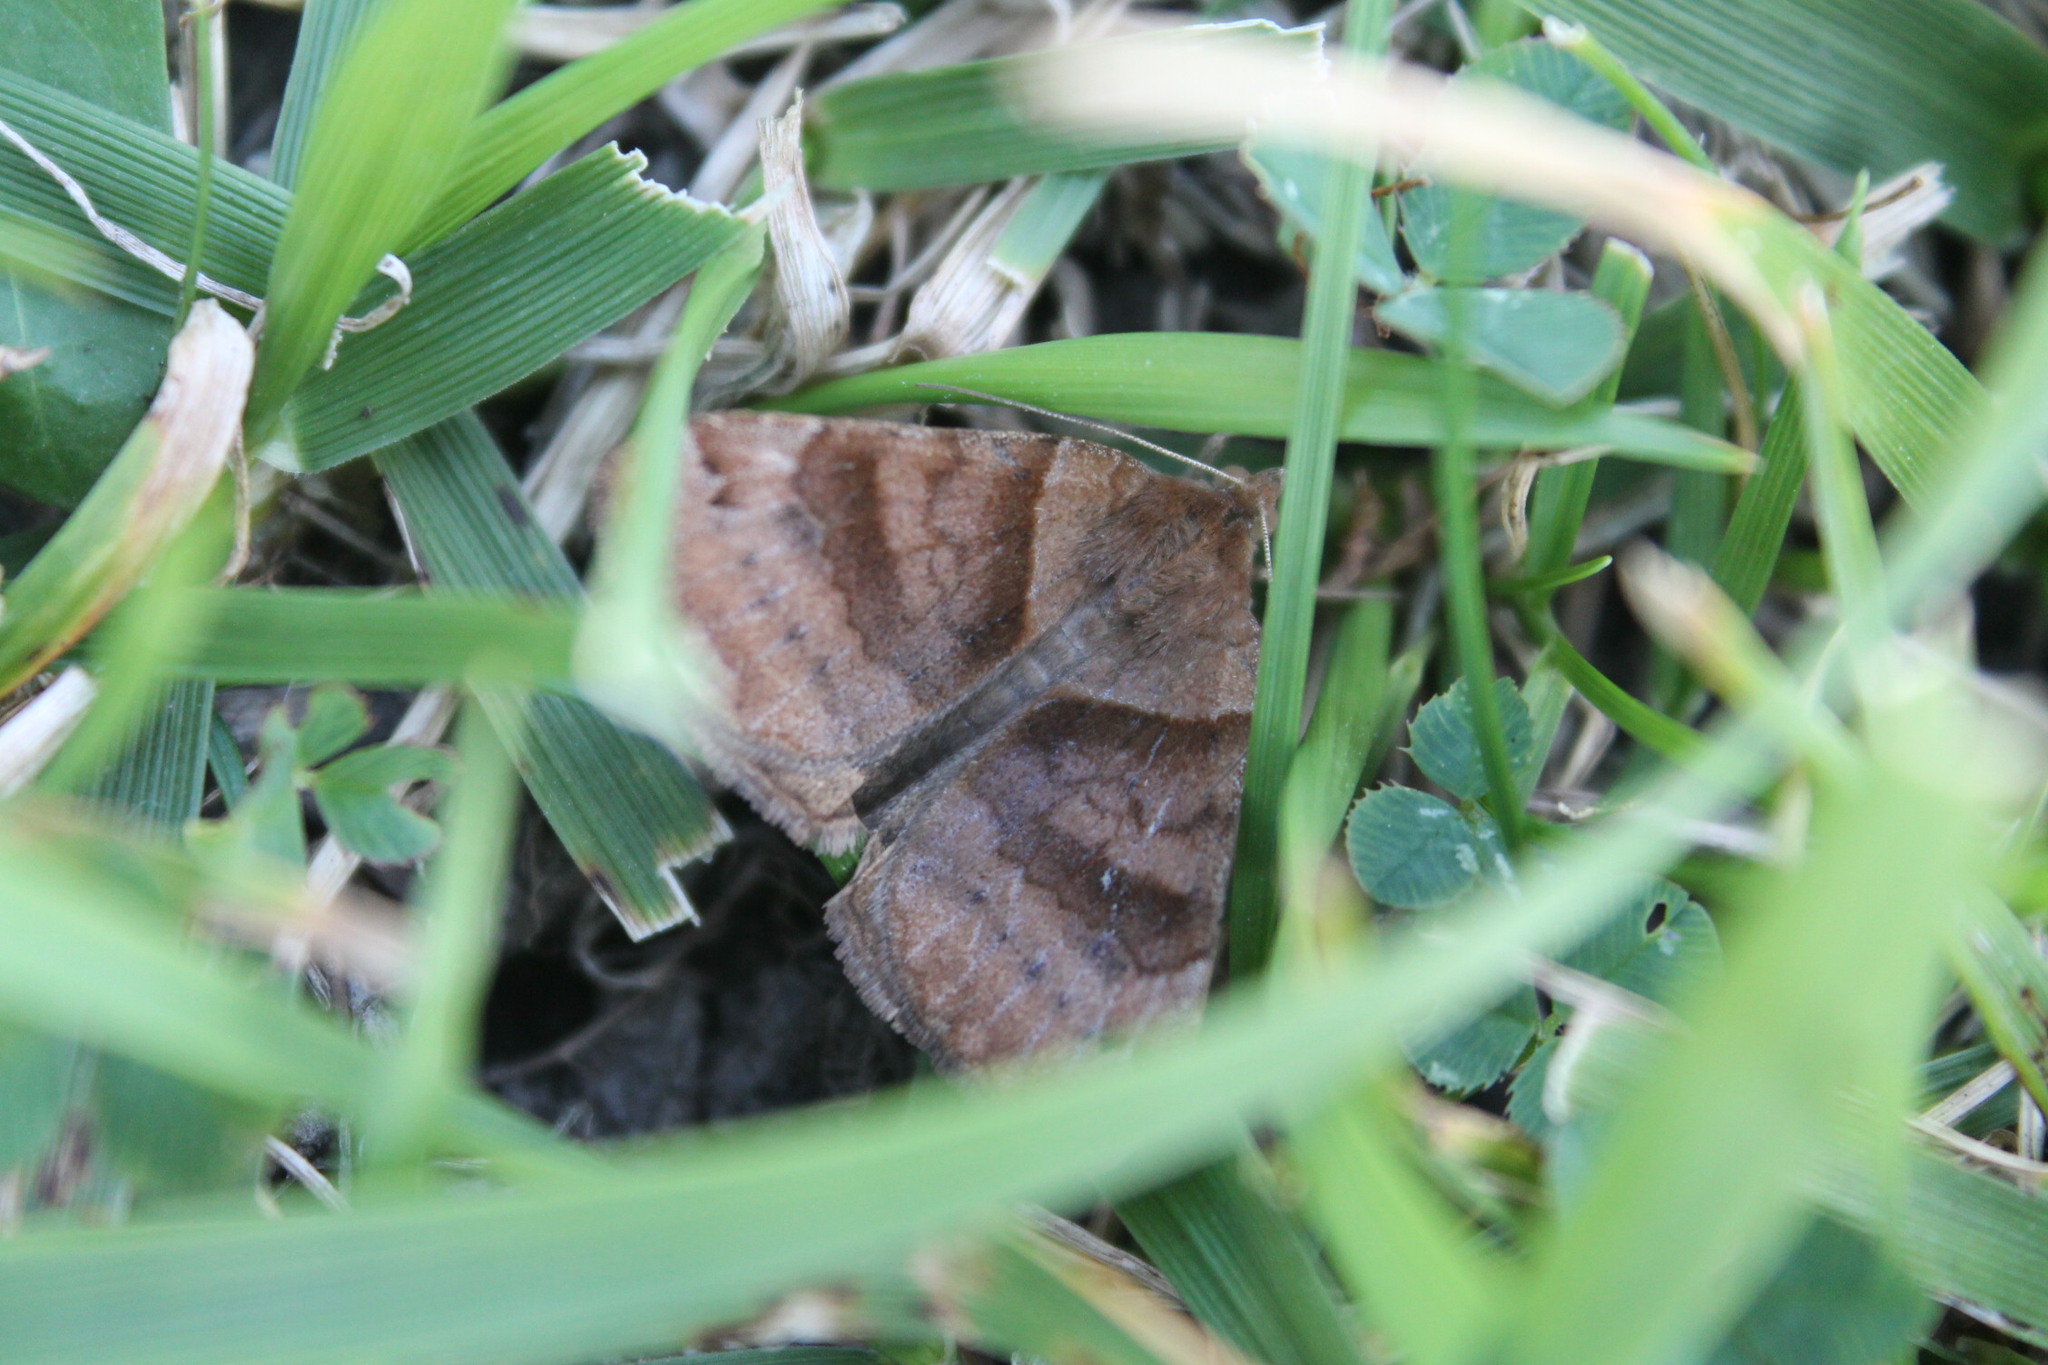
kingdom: Animalia
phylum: Arthropoda
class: Insecta
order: Lepidoptera
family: Erebidae
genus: Caenurgina
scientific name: Caenurgina crassiuscula
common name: Double-barred
